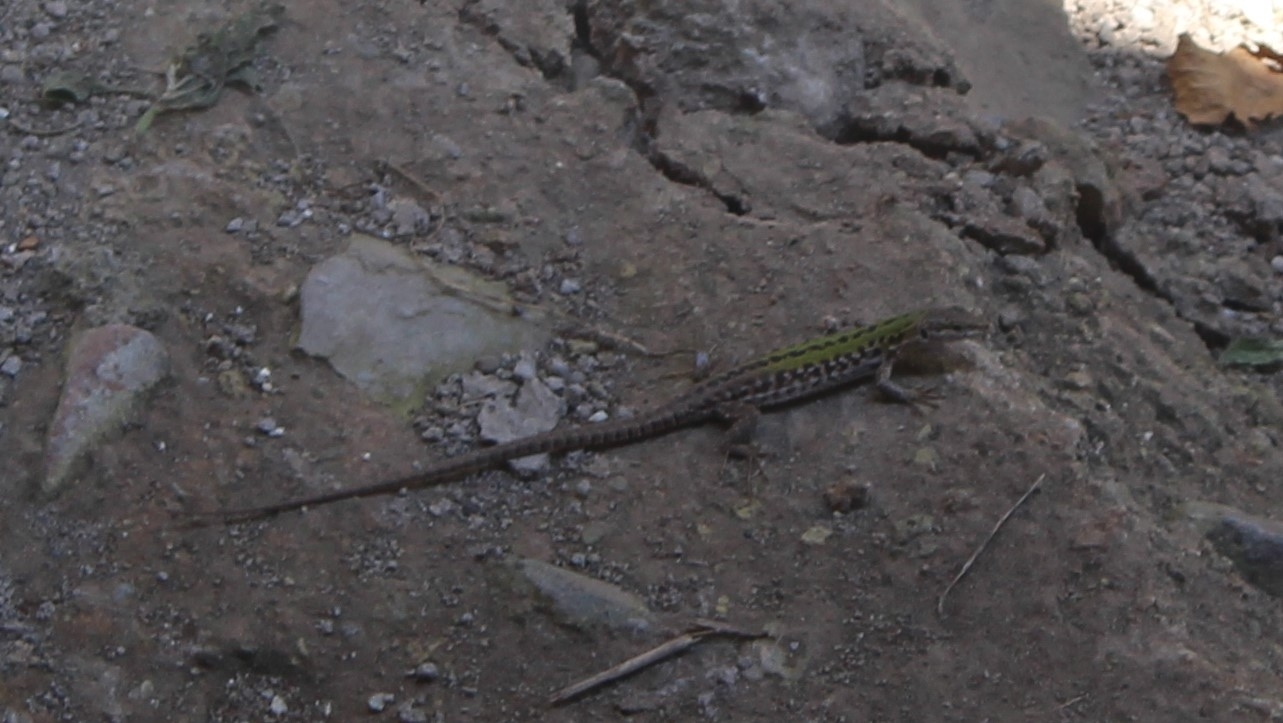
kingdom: Animalia
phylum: Chordata
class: Squamata
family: Lacertidae
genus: Podarcis
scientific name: Podarcis siculus
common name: Italian wall lizard
